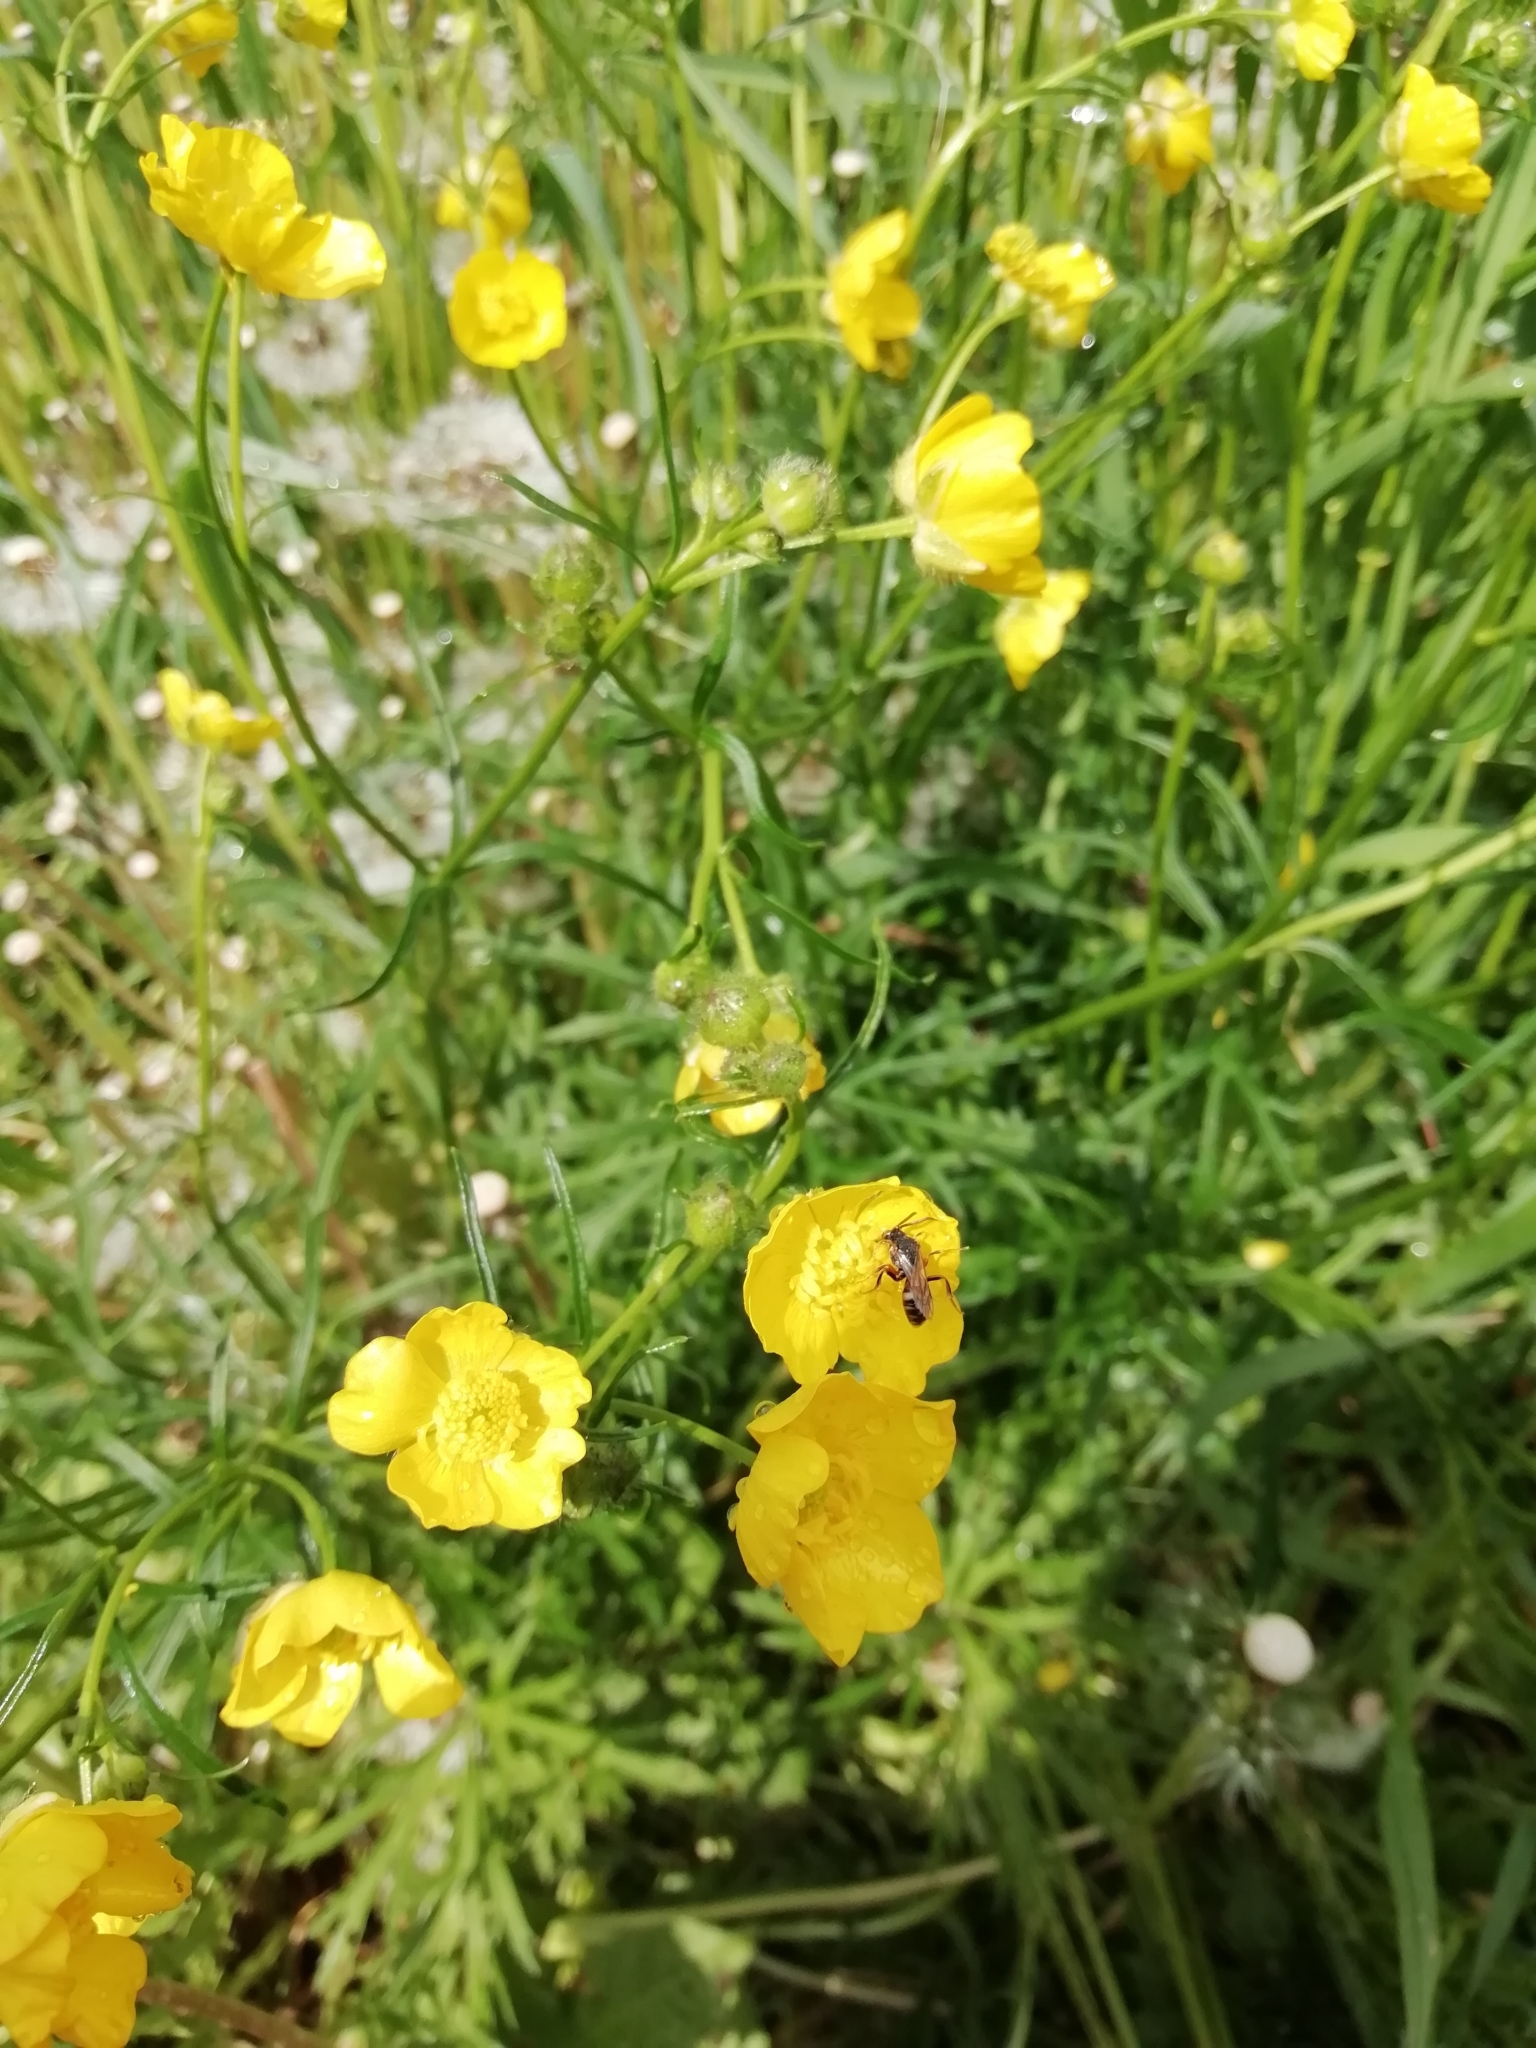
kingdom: Plantae
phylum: Tracheophyta
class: Magnoliopsida
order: Ranunculales
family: Ranunculaceae
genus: Ranunculus
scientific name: Ranunculus polyanthemos
